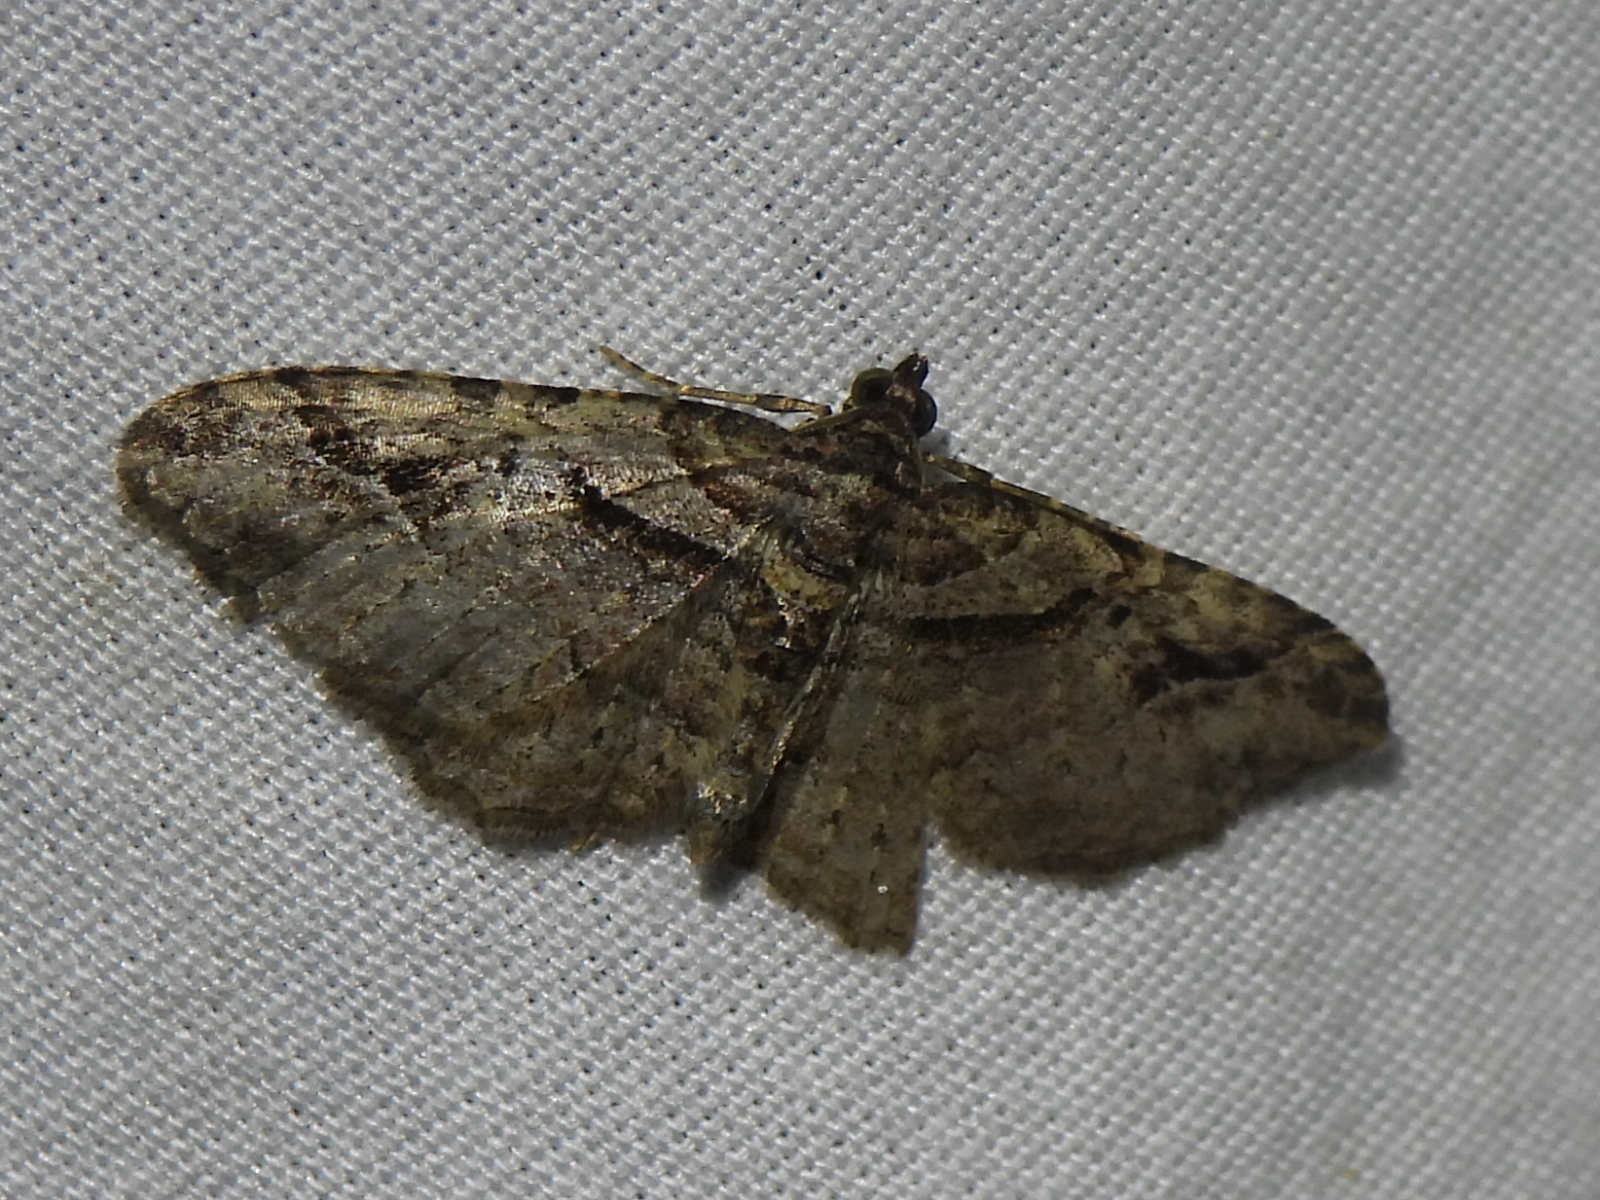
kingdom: Animalia
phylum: Arthropoda
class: Insecta
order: Lepidoptera
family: Geometridae
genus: Costaconvexa
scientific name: Costaconvexa centrostrigaria
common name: Bent-line carpet
